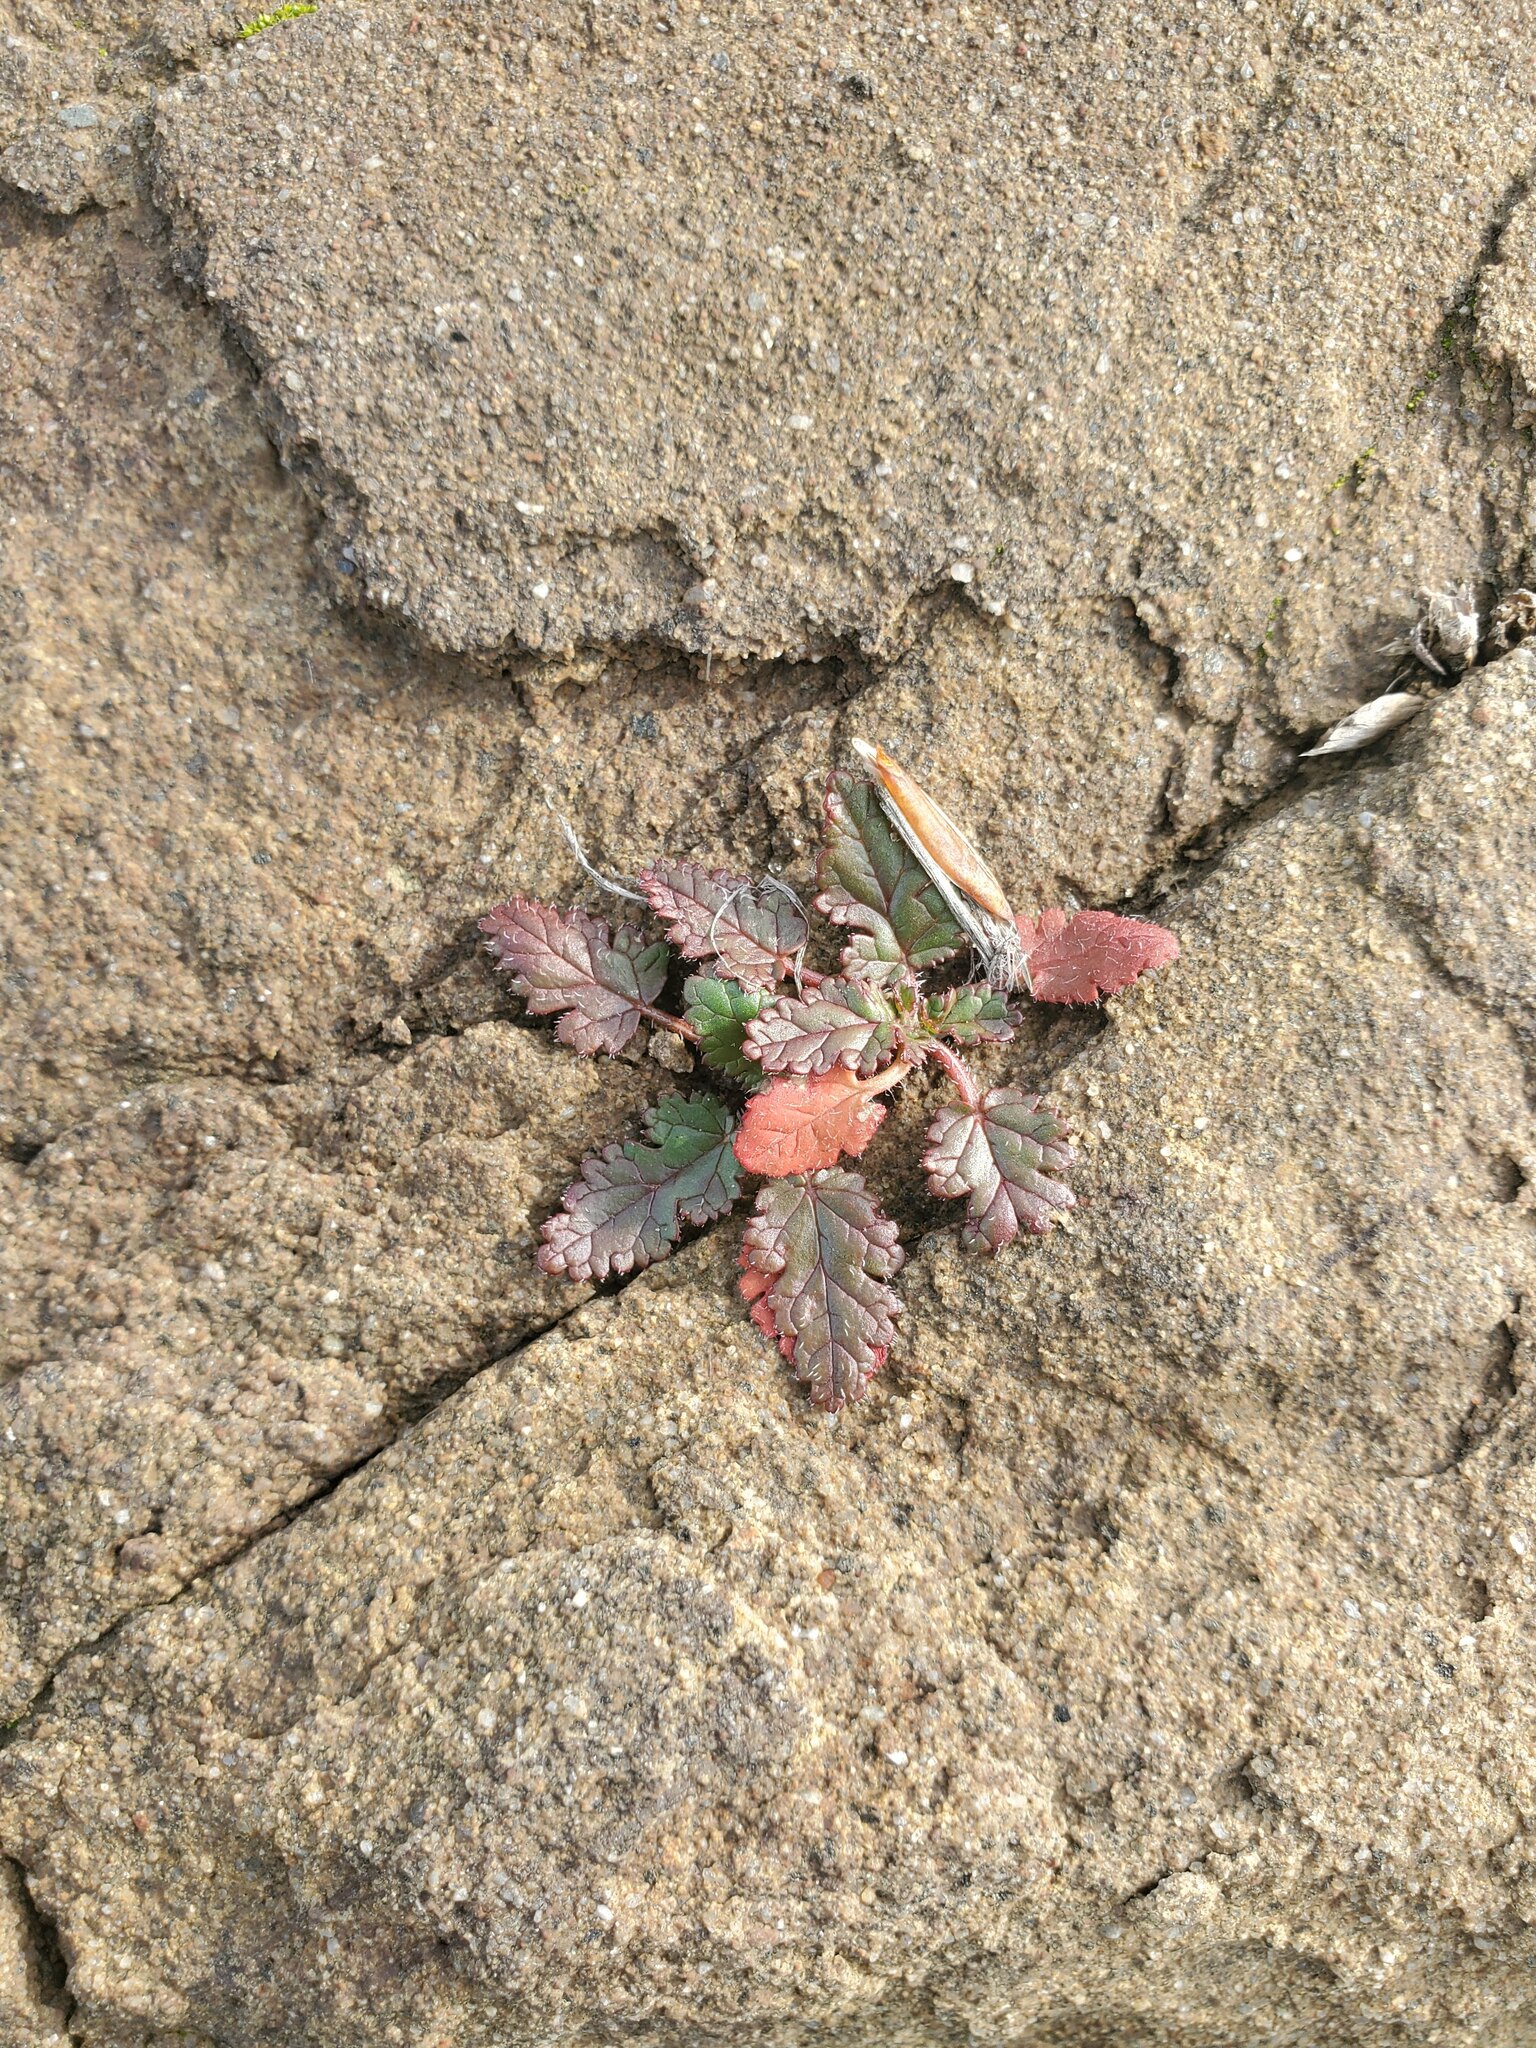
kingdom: Plantae
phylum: Tracheophyta
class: Magnoliopsida
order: Geraniales
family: Geraniaceae
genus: Erodium
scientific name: Erodium
